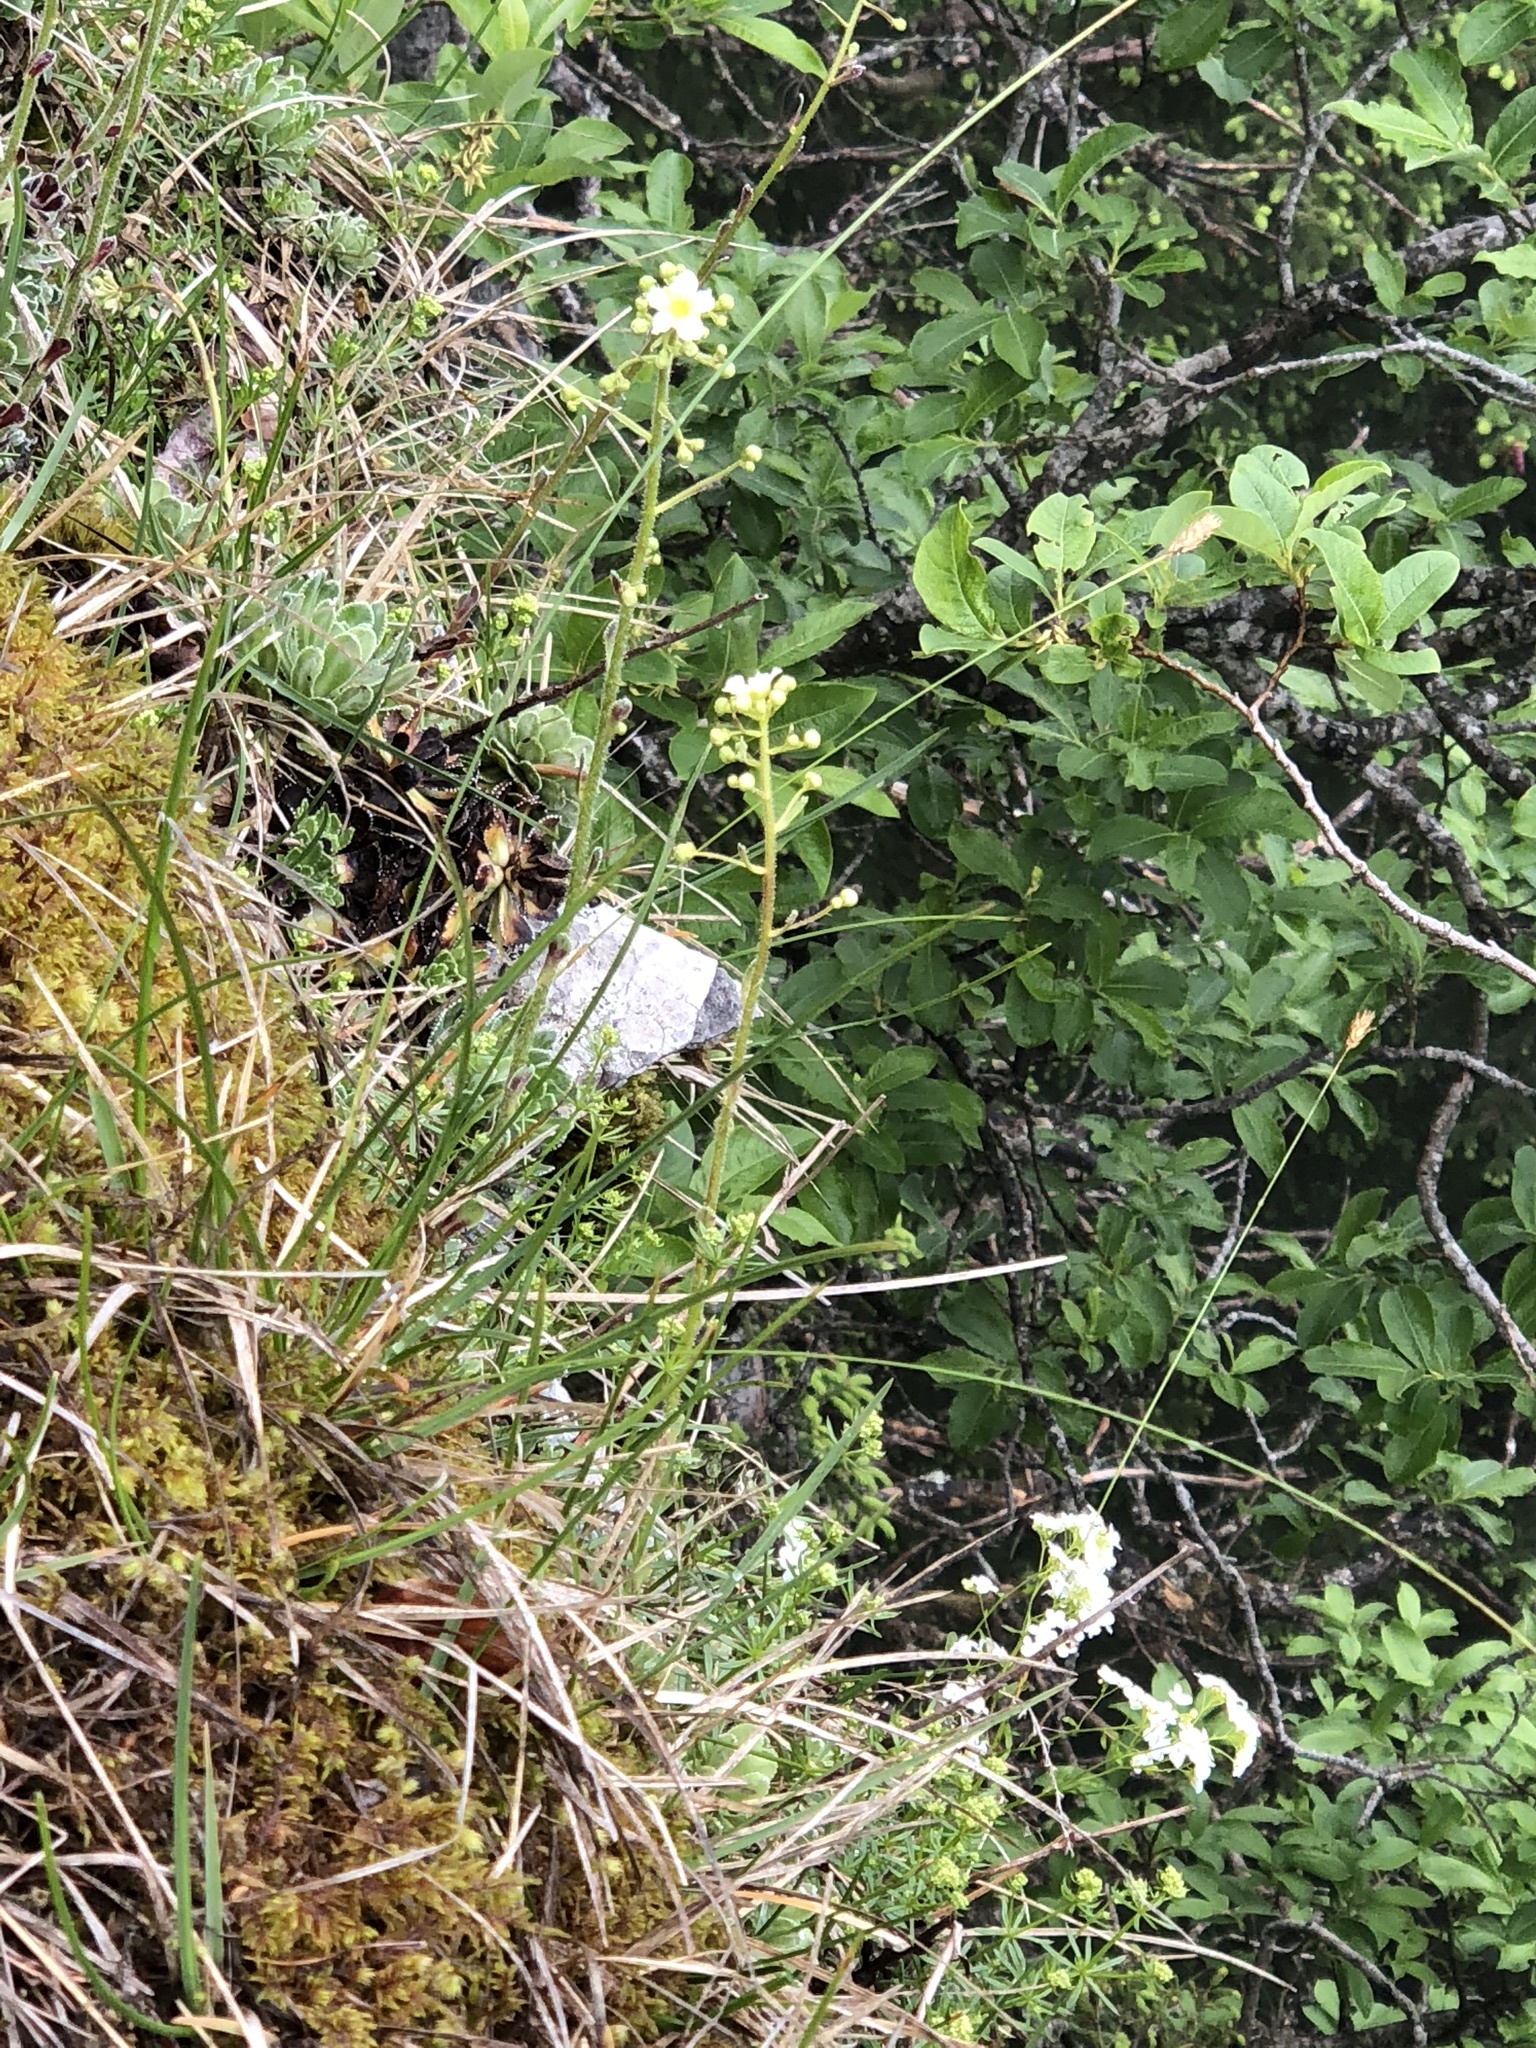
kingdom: Plantae
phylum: Tracheophyta
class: Magnoliopsida
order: Saxifragales
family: Saxifragaceae
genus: Saxifraga
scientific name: Saxifraga paniculata
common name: Livelong saxifrage
